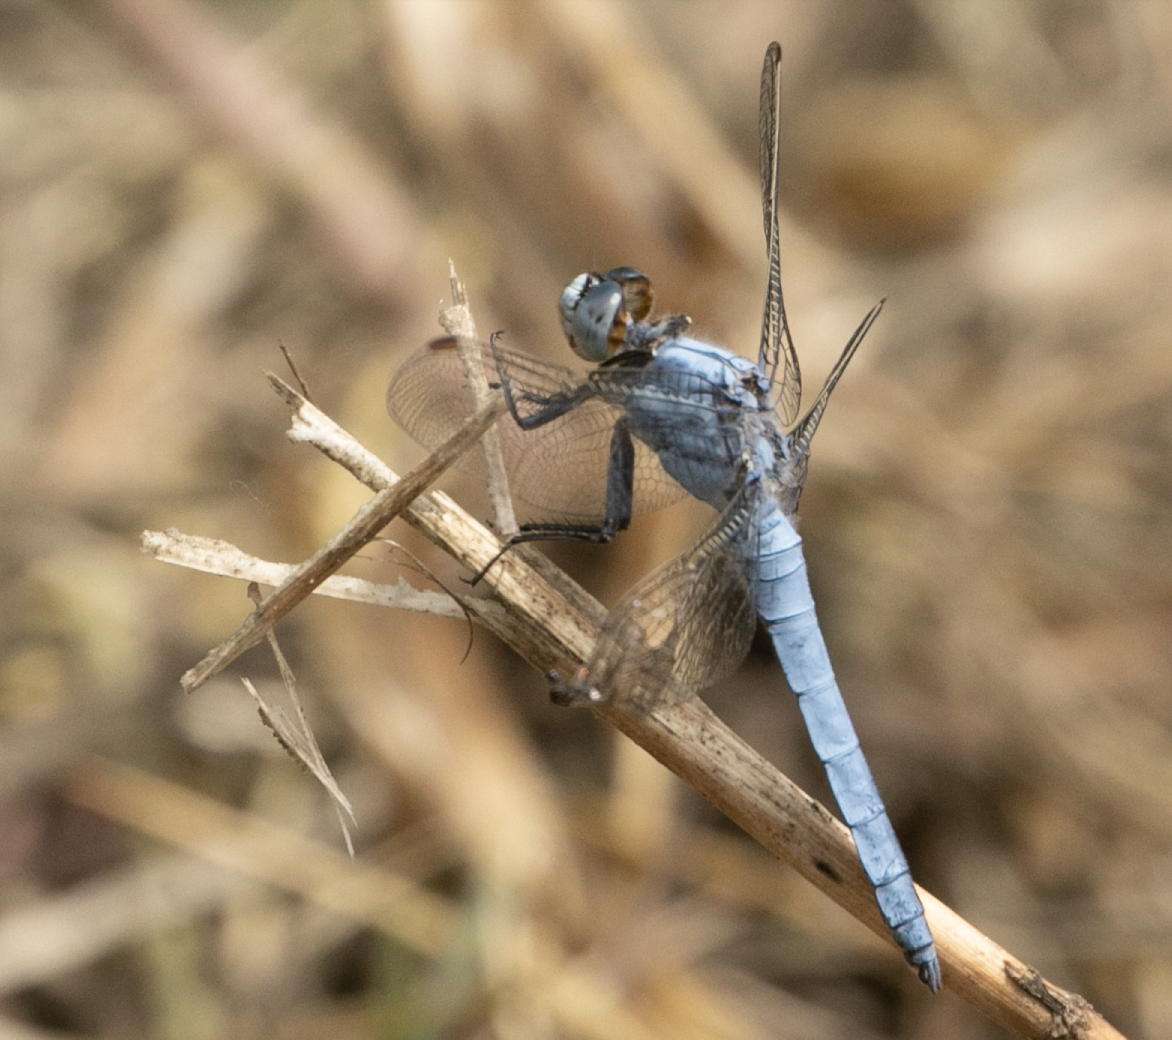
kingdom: Animalia
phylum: Arthropoda
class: Insecta
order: Odonata
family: Libellulidae
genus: Orthetrum
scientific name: Orthetrum brunneum
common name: Southern skimmer
